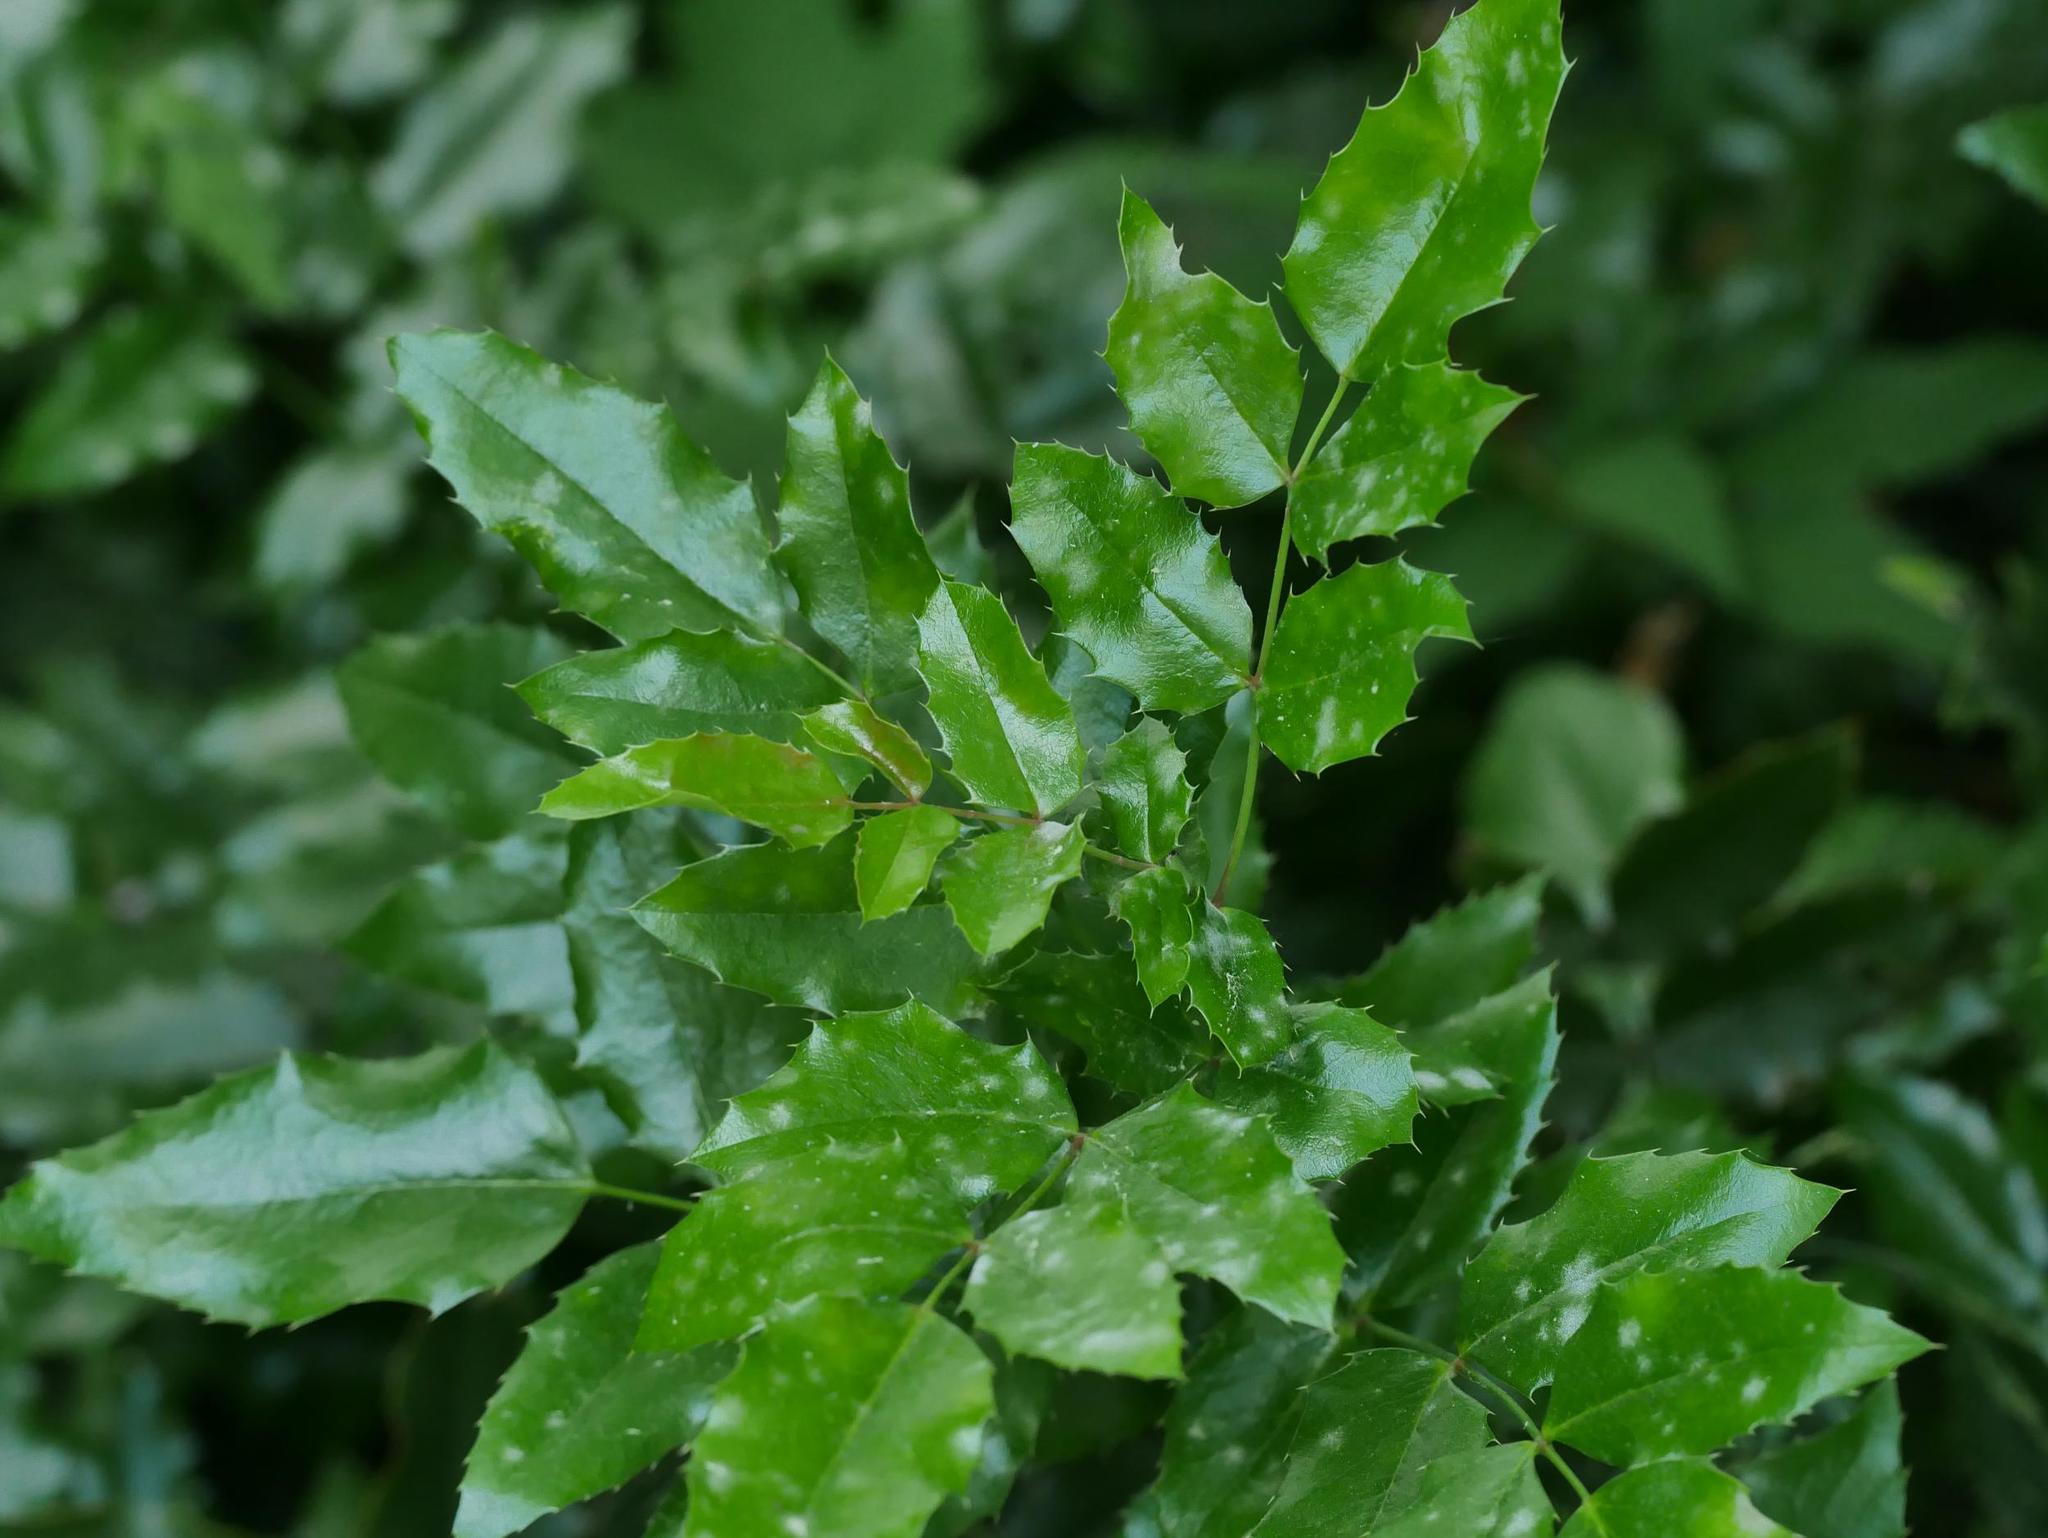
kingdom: Plantae
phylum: Tracheophyta
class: Magnoliopsida
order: Ranunculales
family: Berberidaceae
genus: Mahonia
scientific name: Mahonia aquifolium
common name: Oregon-grape
